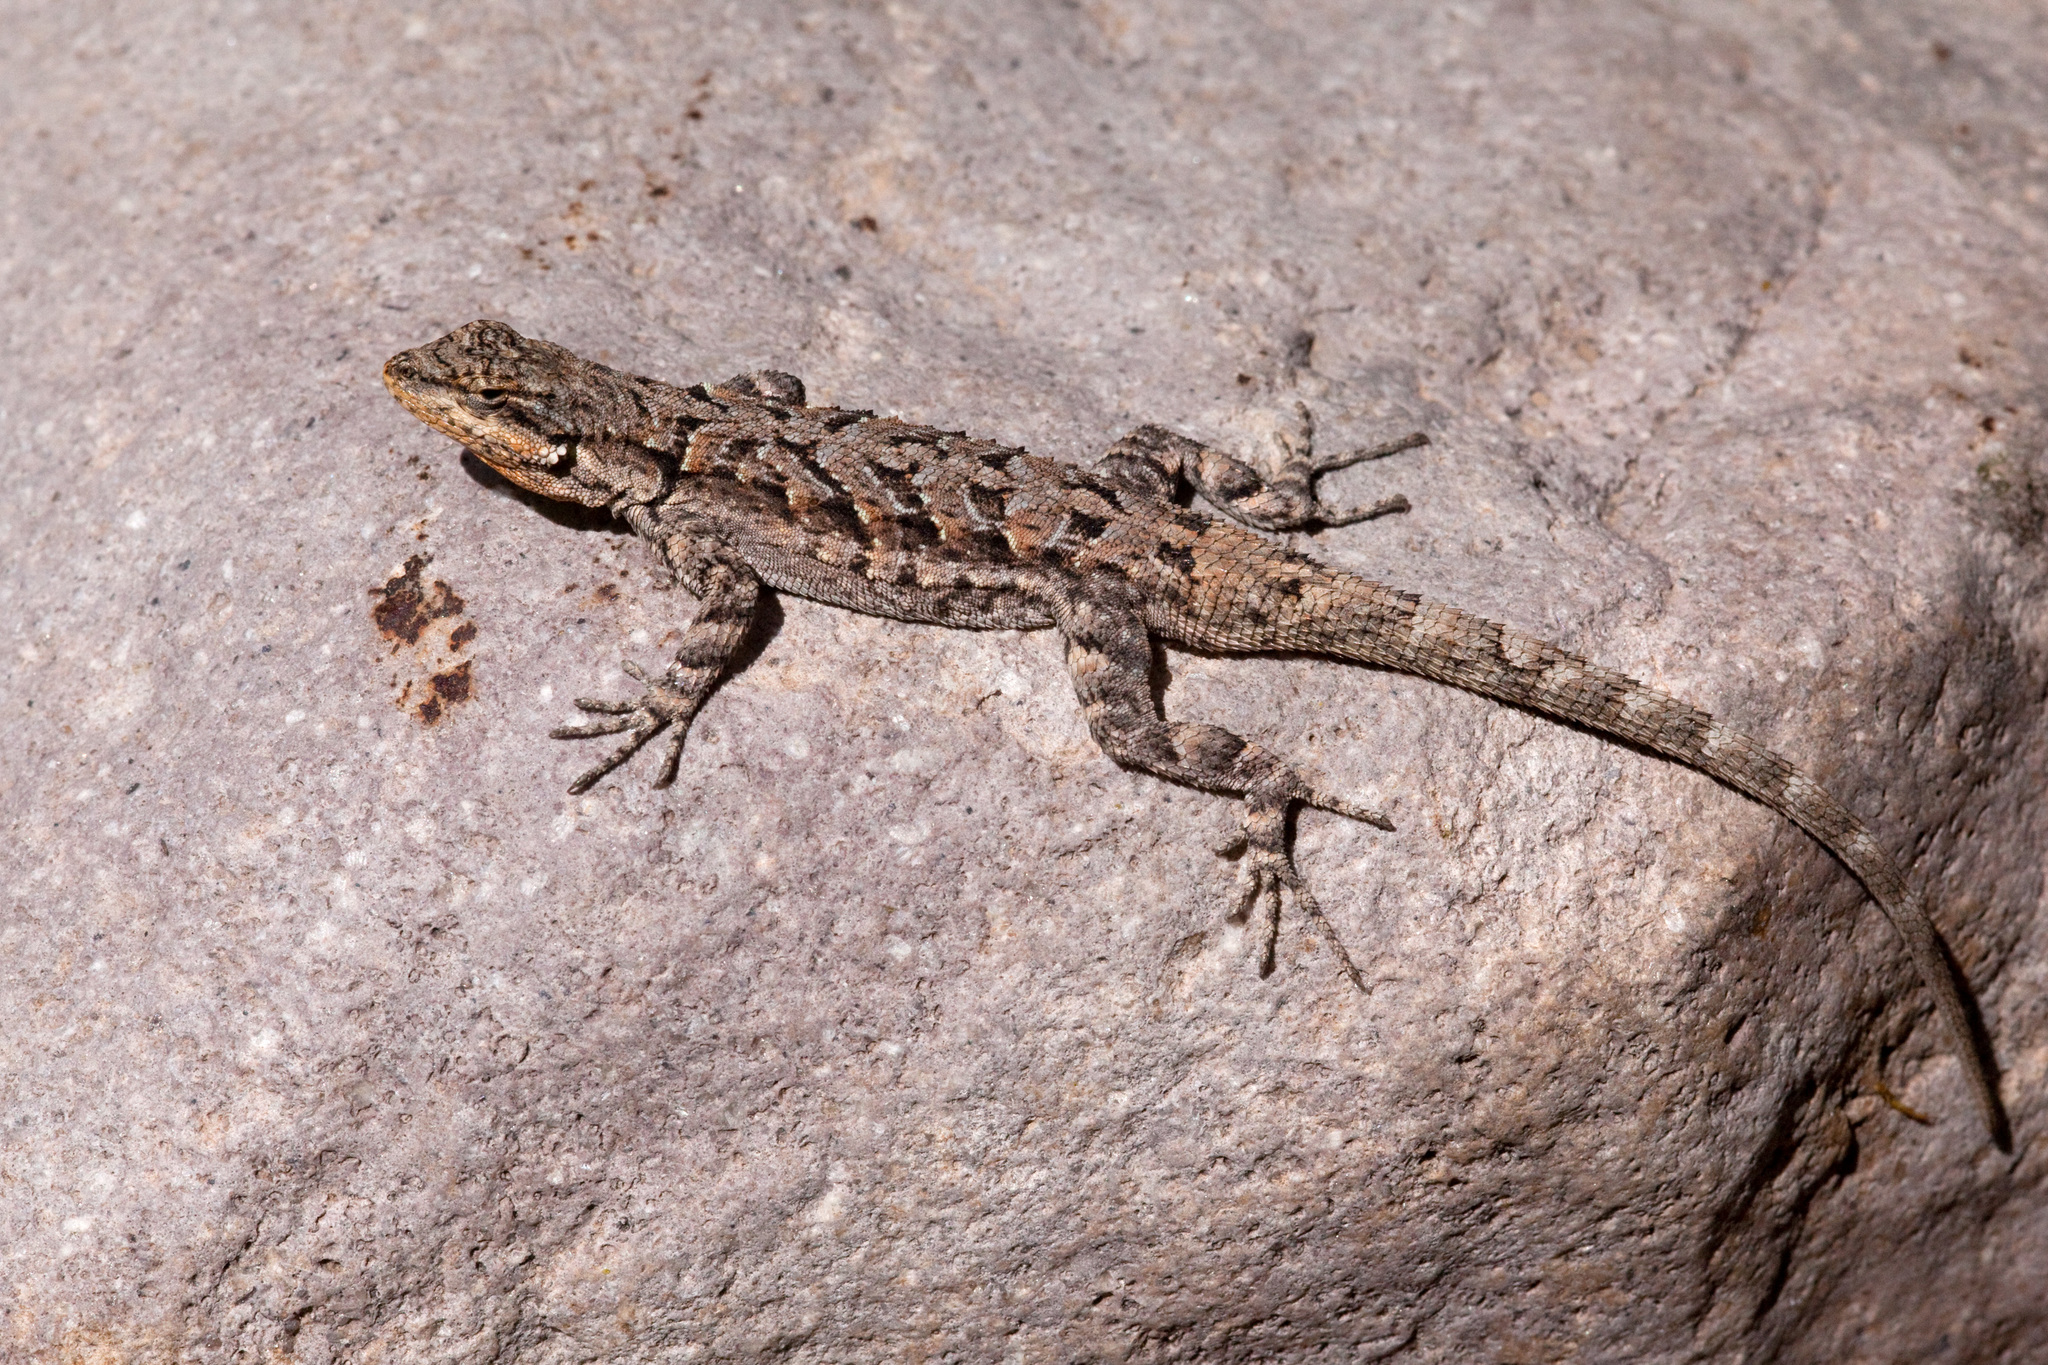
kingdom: Animalia
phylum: Chordata
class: Squamata
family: Phrynosomatidae
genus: Urosaurus
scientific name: Urosaurus ornatus
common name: Ornate tree lizard
